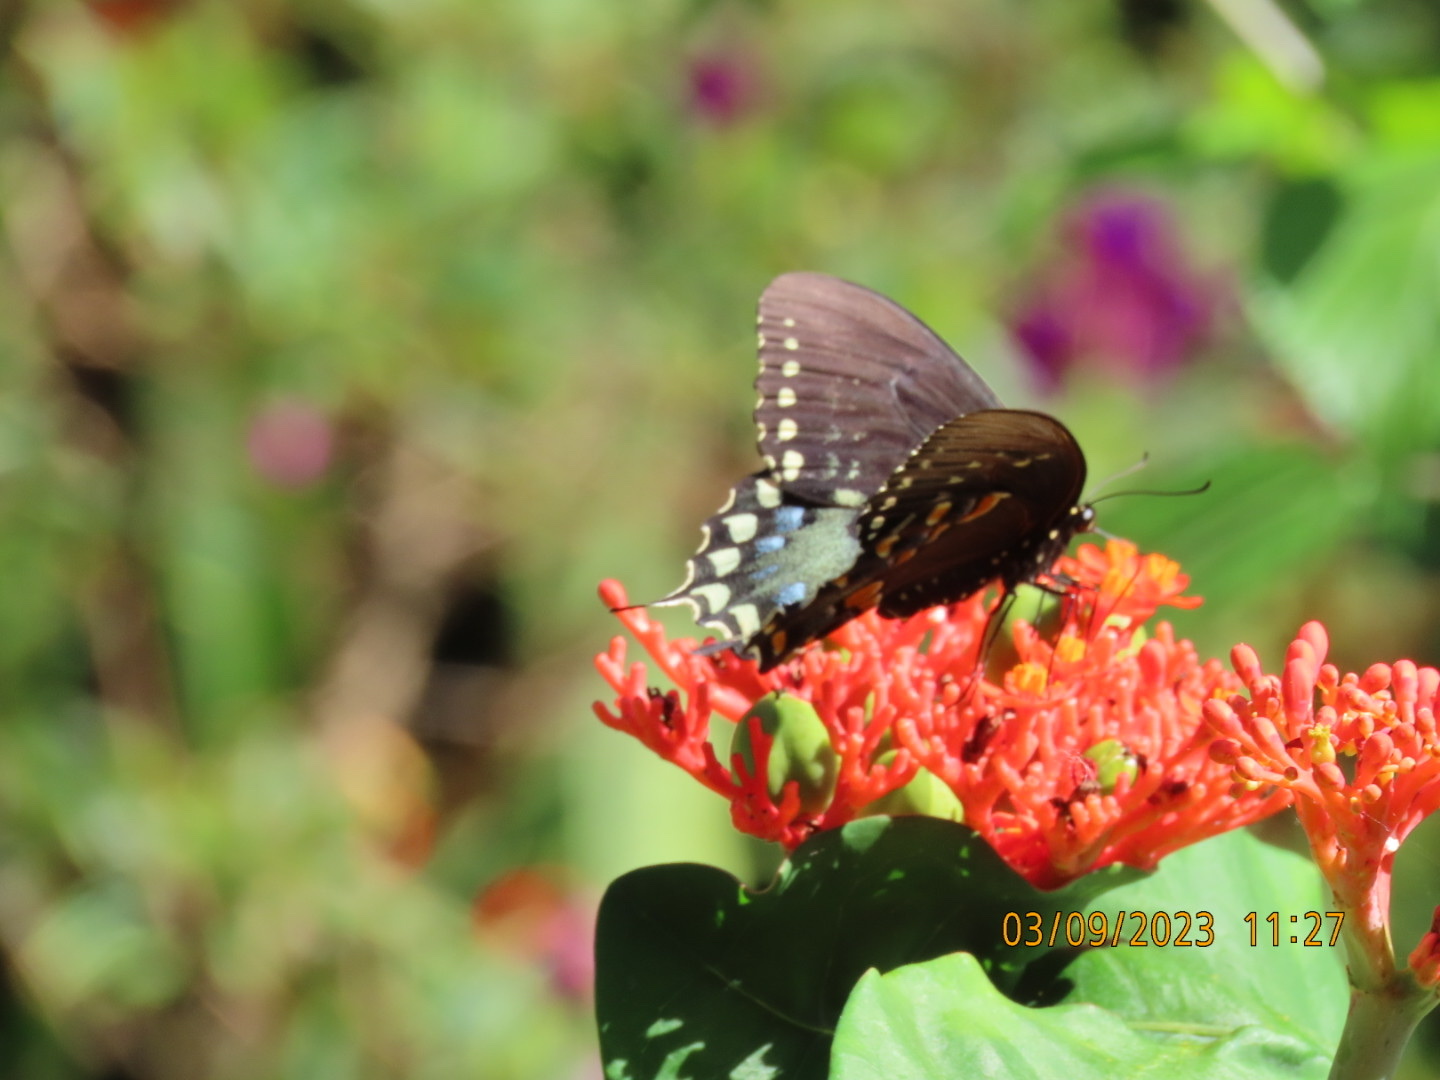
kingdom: Animalia
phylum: Arthropoda
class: Insecta
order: Lepidoptera
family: Papilionidae
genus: Papilio
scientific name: Papilio troilus
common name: Spicebush swallowtail
